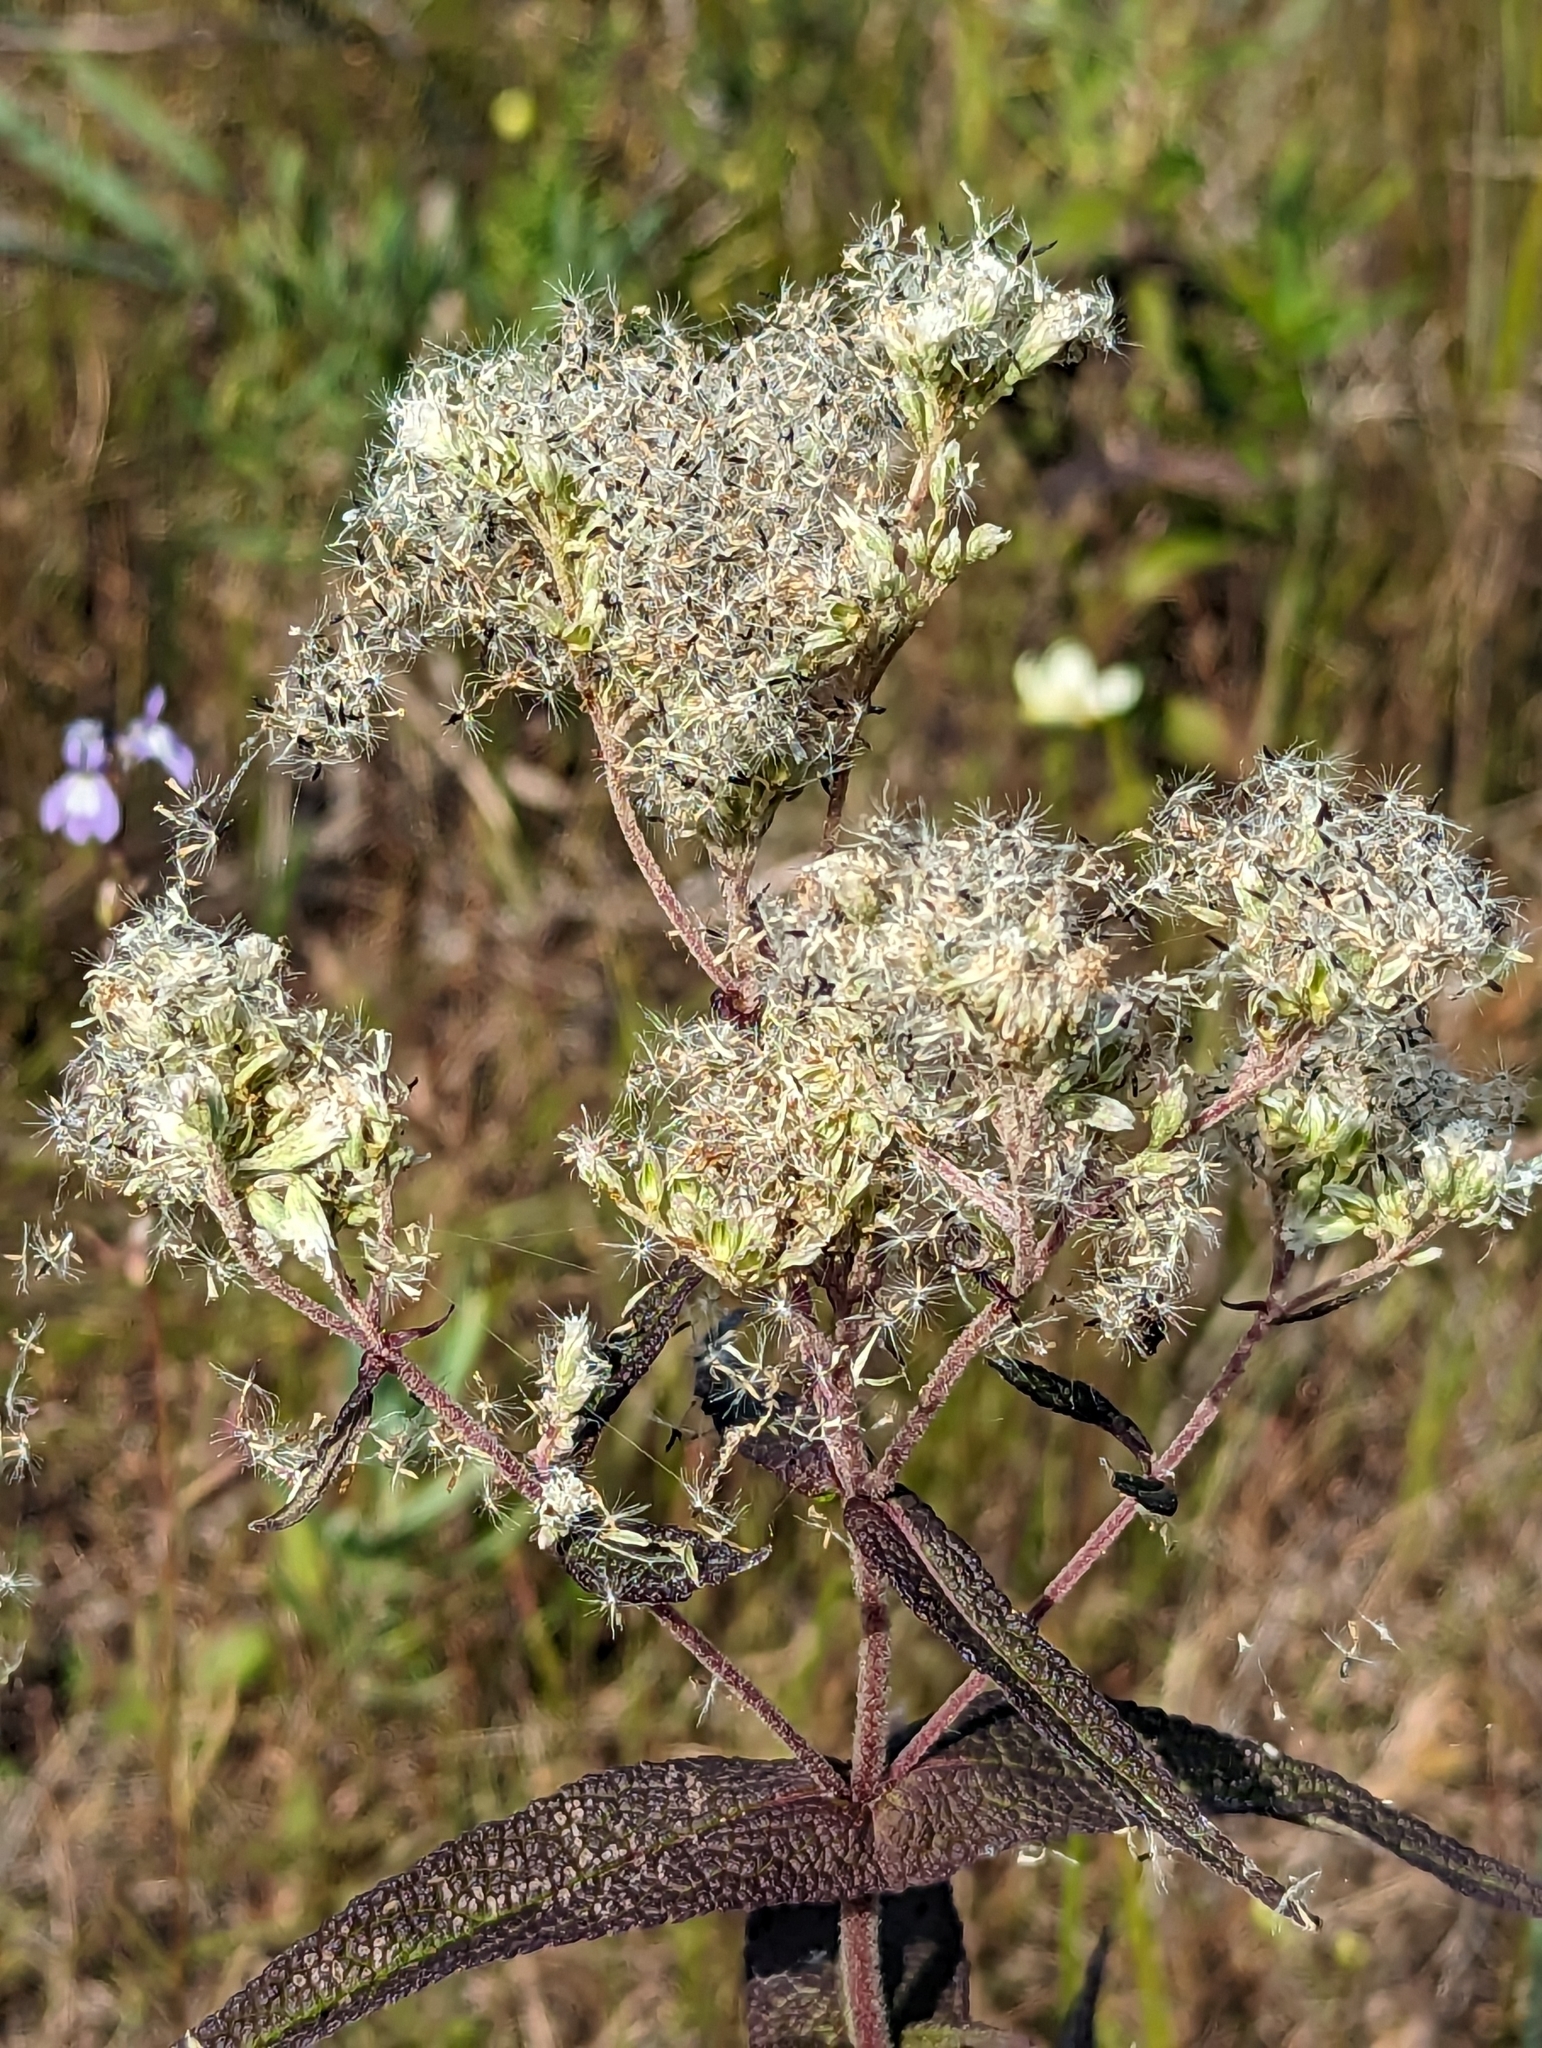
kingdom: Plantae
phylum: Tracheophyta
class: Magnoliopsida
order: Asterales
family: Asteraceae
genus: Eupatorium
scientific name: Eupatorium perfoliatum
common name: Boneset
